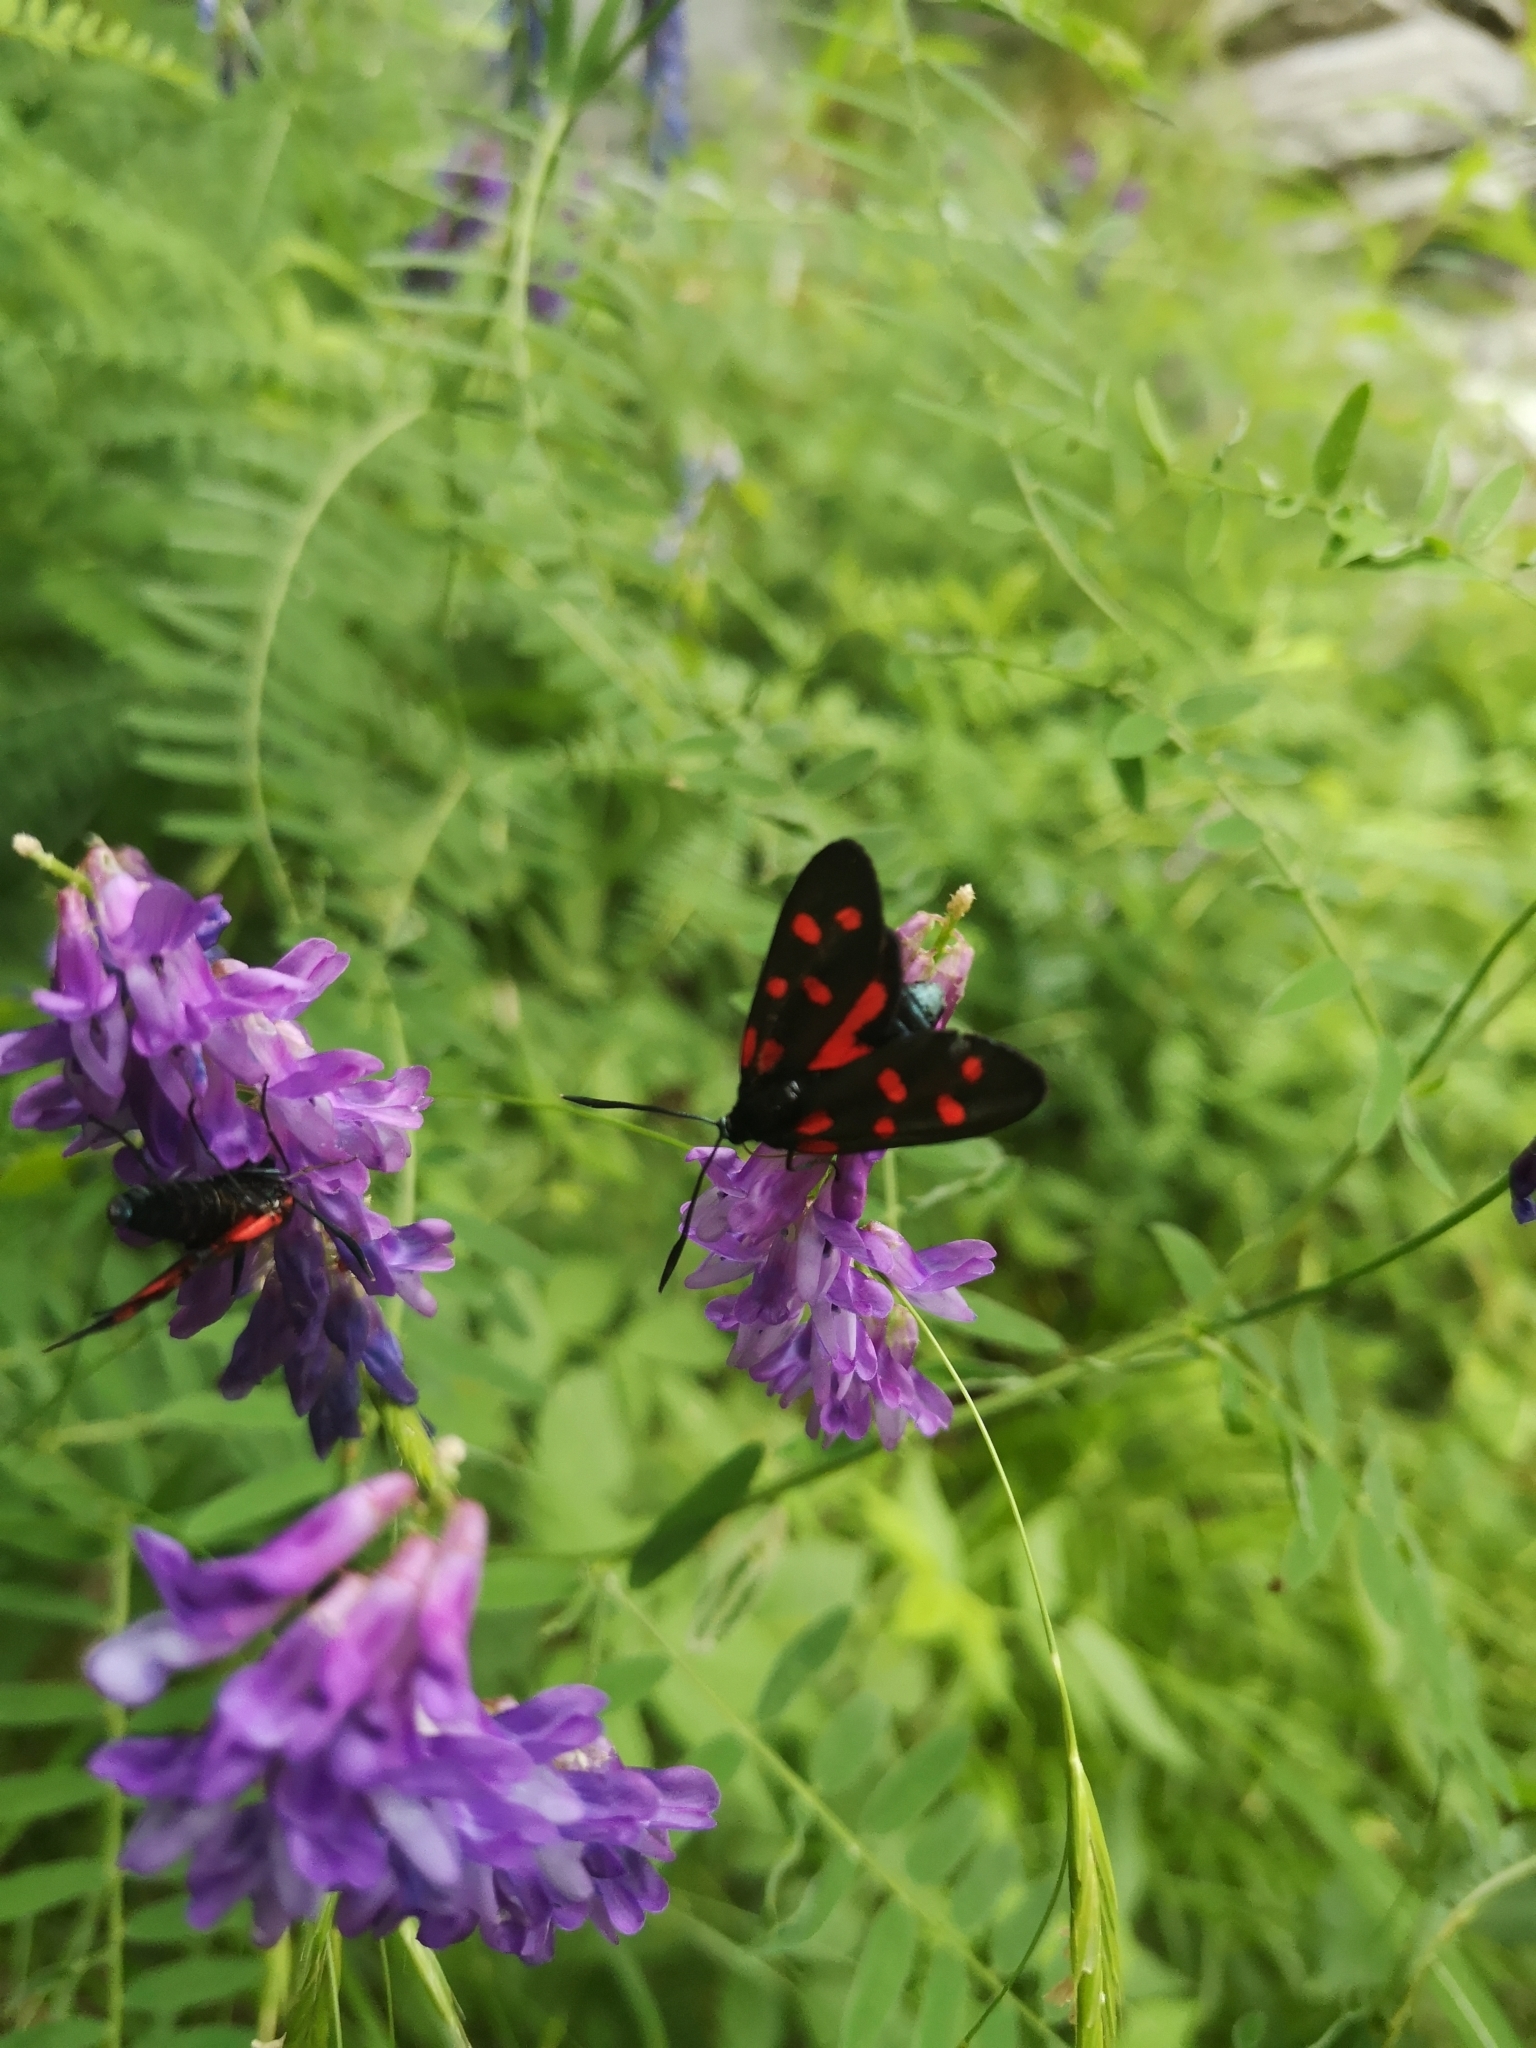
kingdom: Animalia
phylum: Arthropoda
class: Insecta
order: Lepidoptera
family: Zygaenidae
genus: Zygaena
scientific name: Zygaena transalpina
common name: Southern six spot burnet
